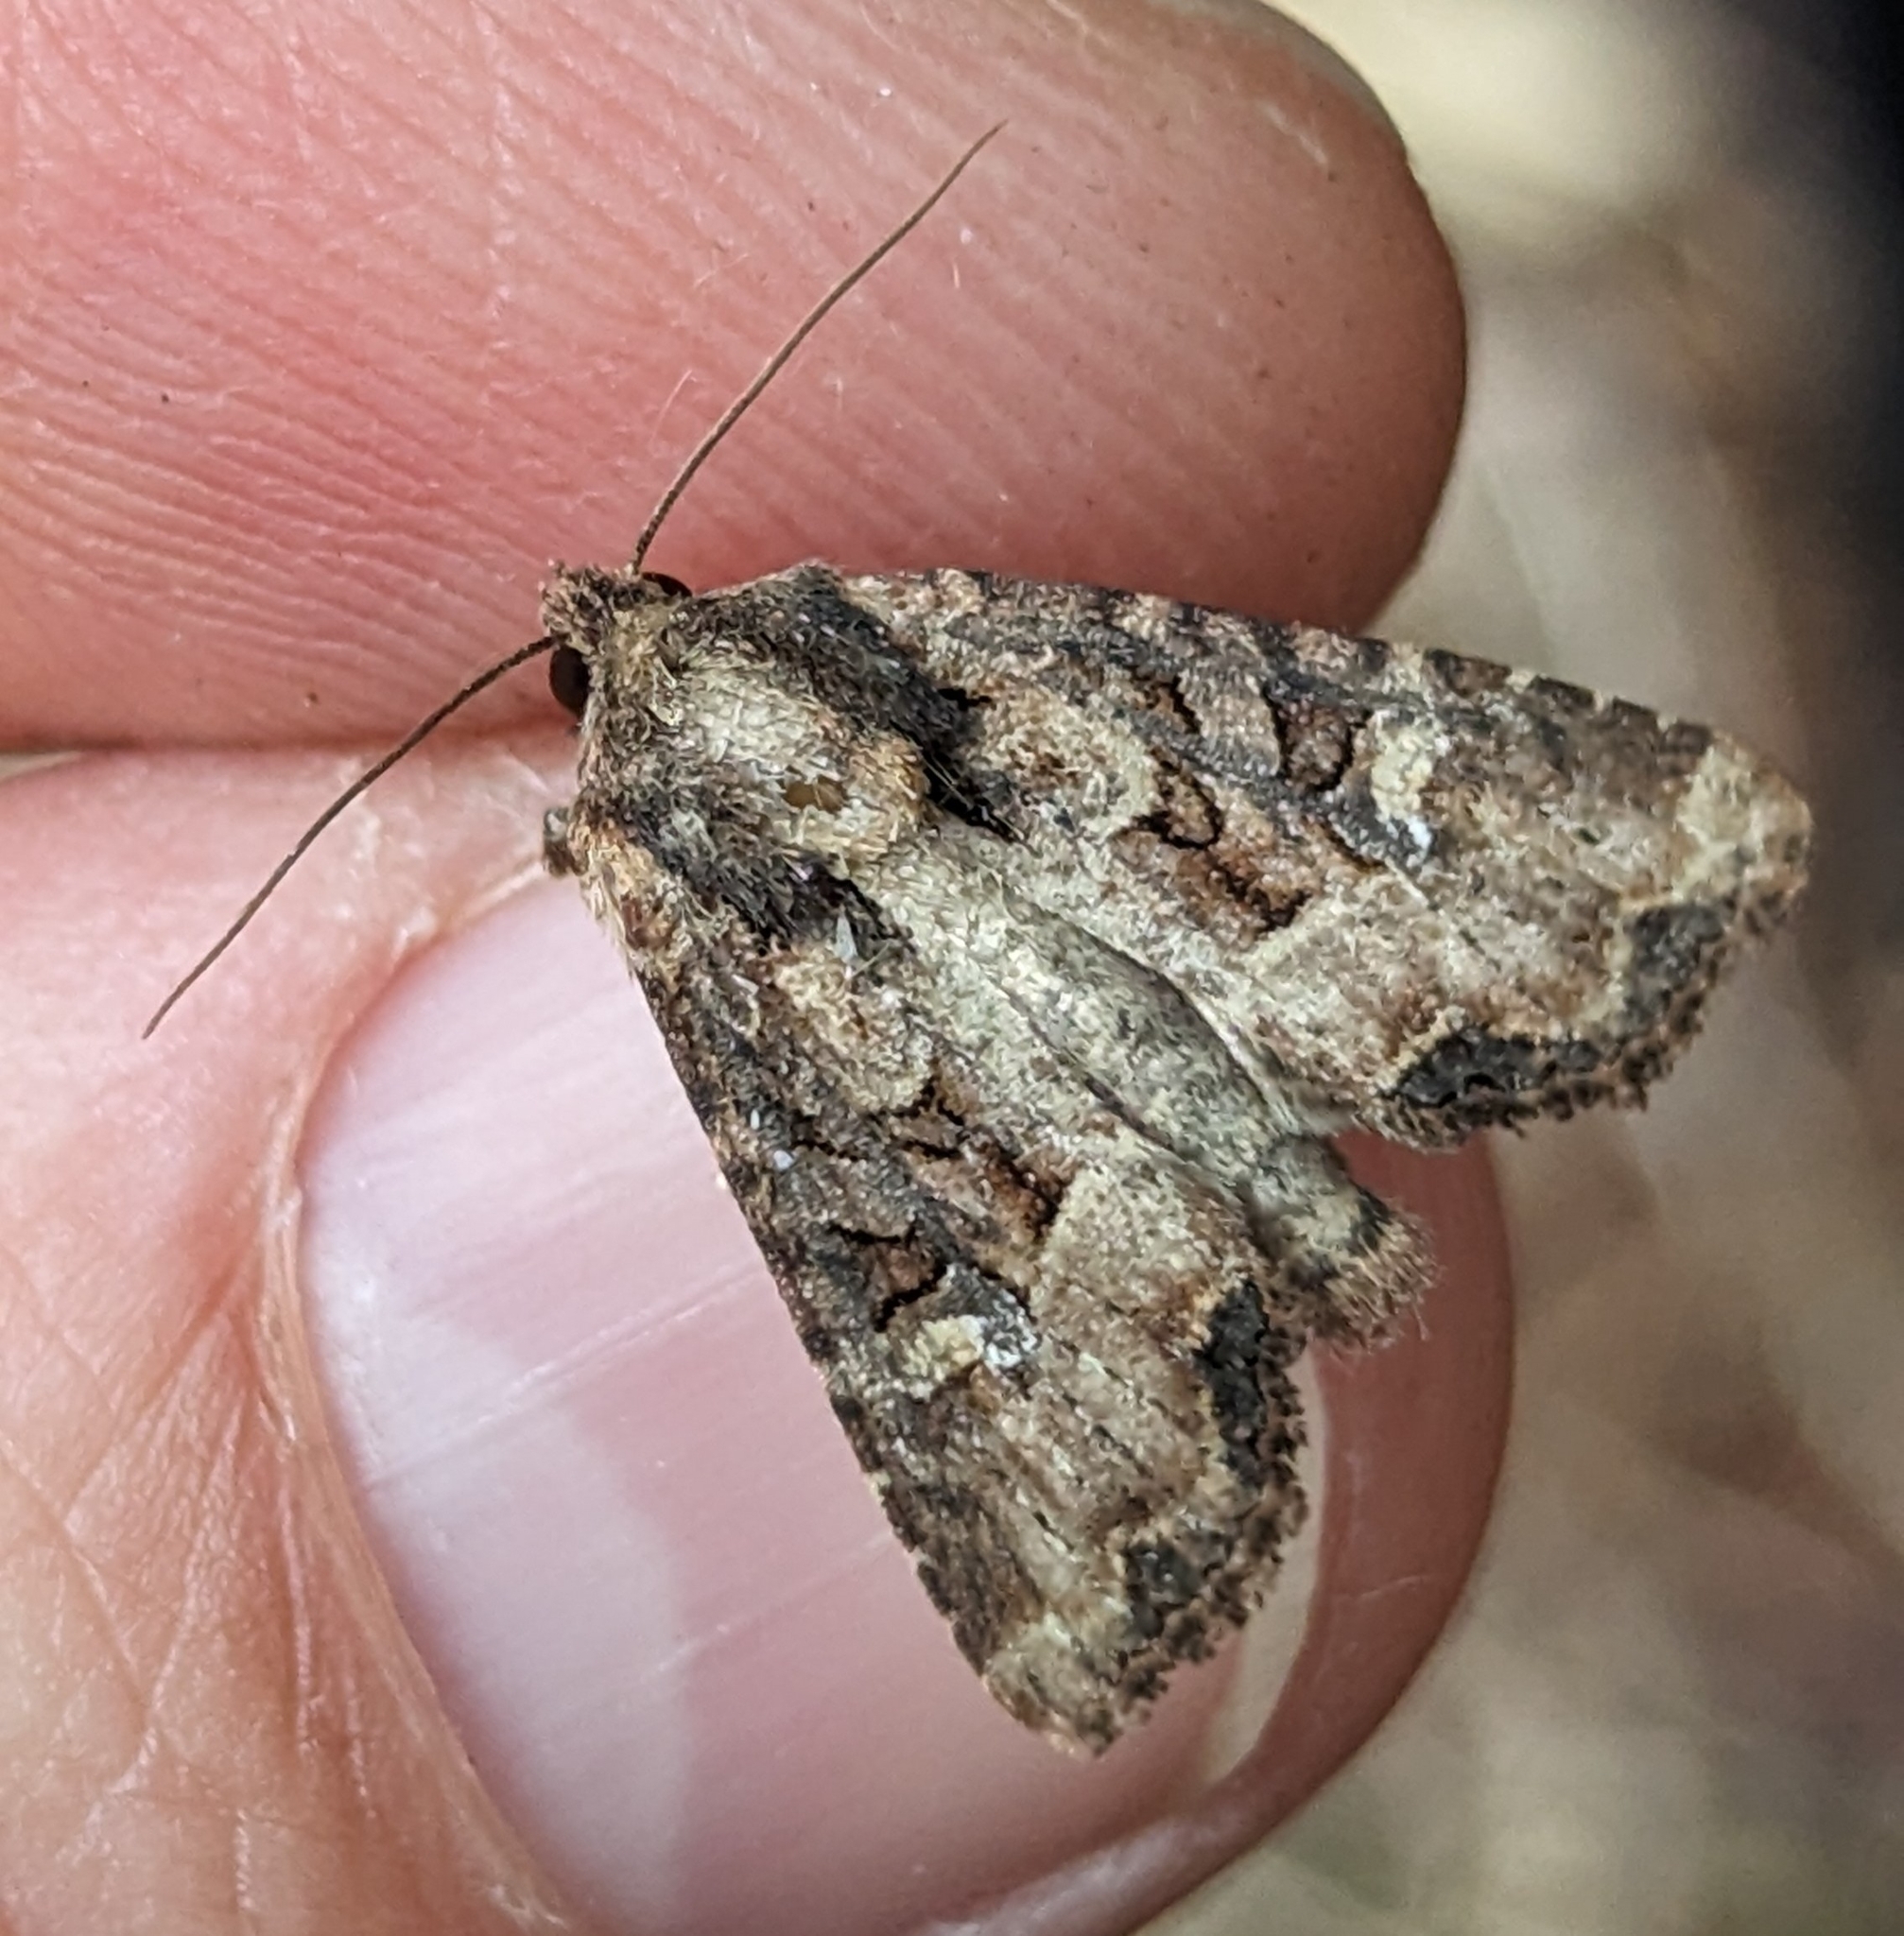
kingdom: Animalia
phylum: Arthropoda
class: Insecta
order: Lepidoptera
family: Noctuidae
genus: Mesapamea
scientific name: Mesapamea secalis
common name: Common rustic
